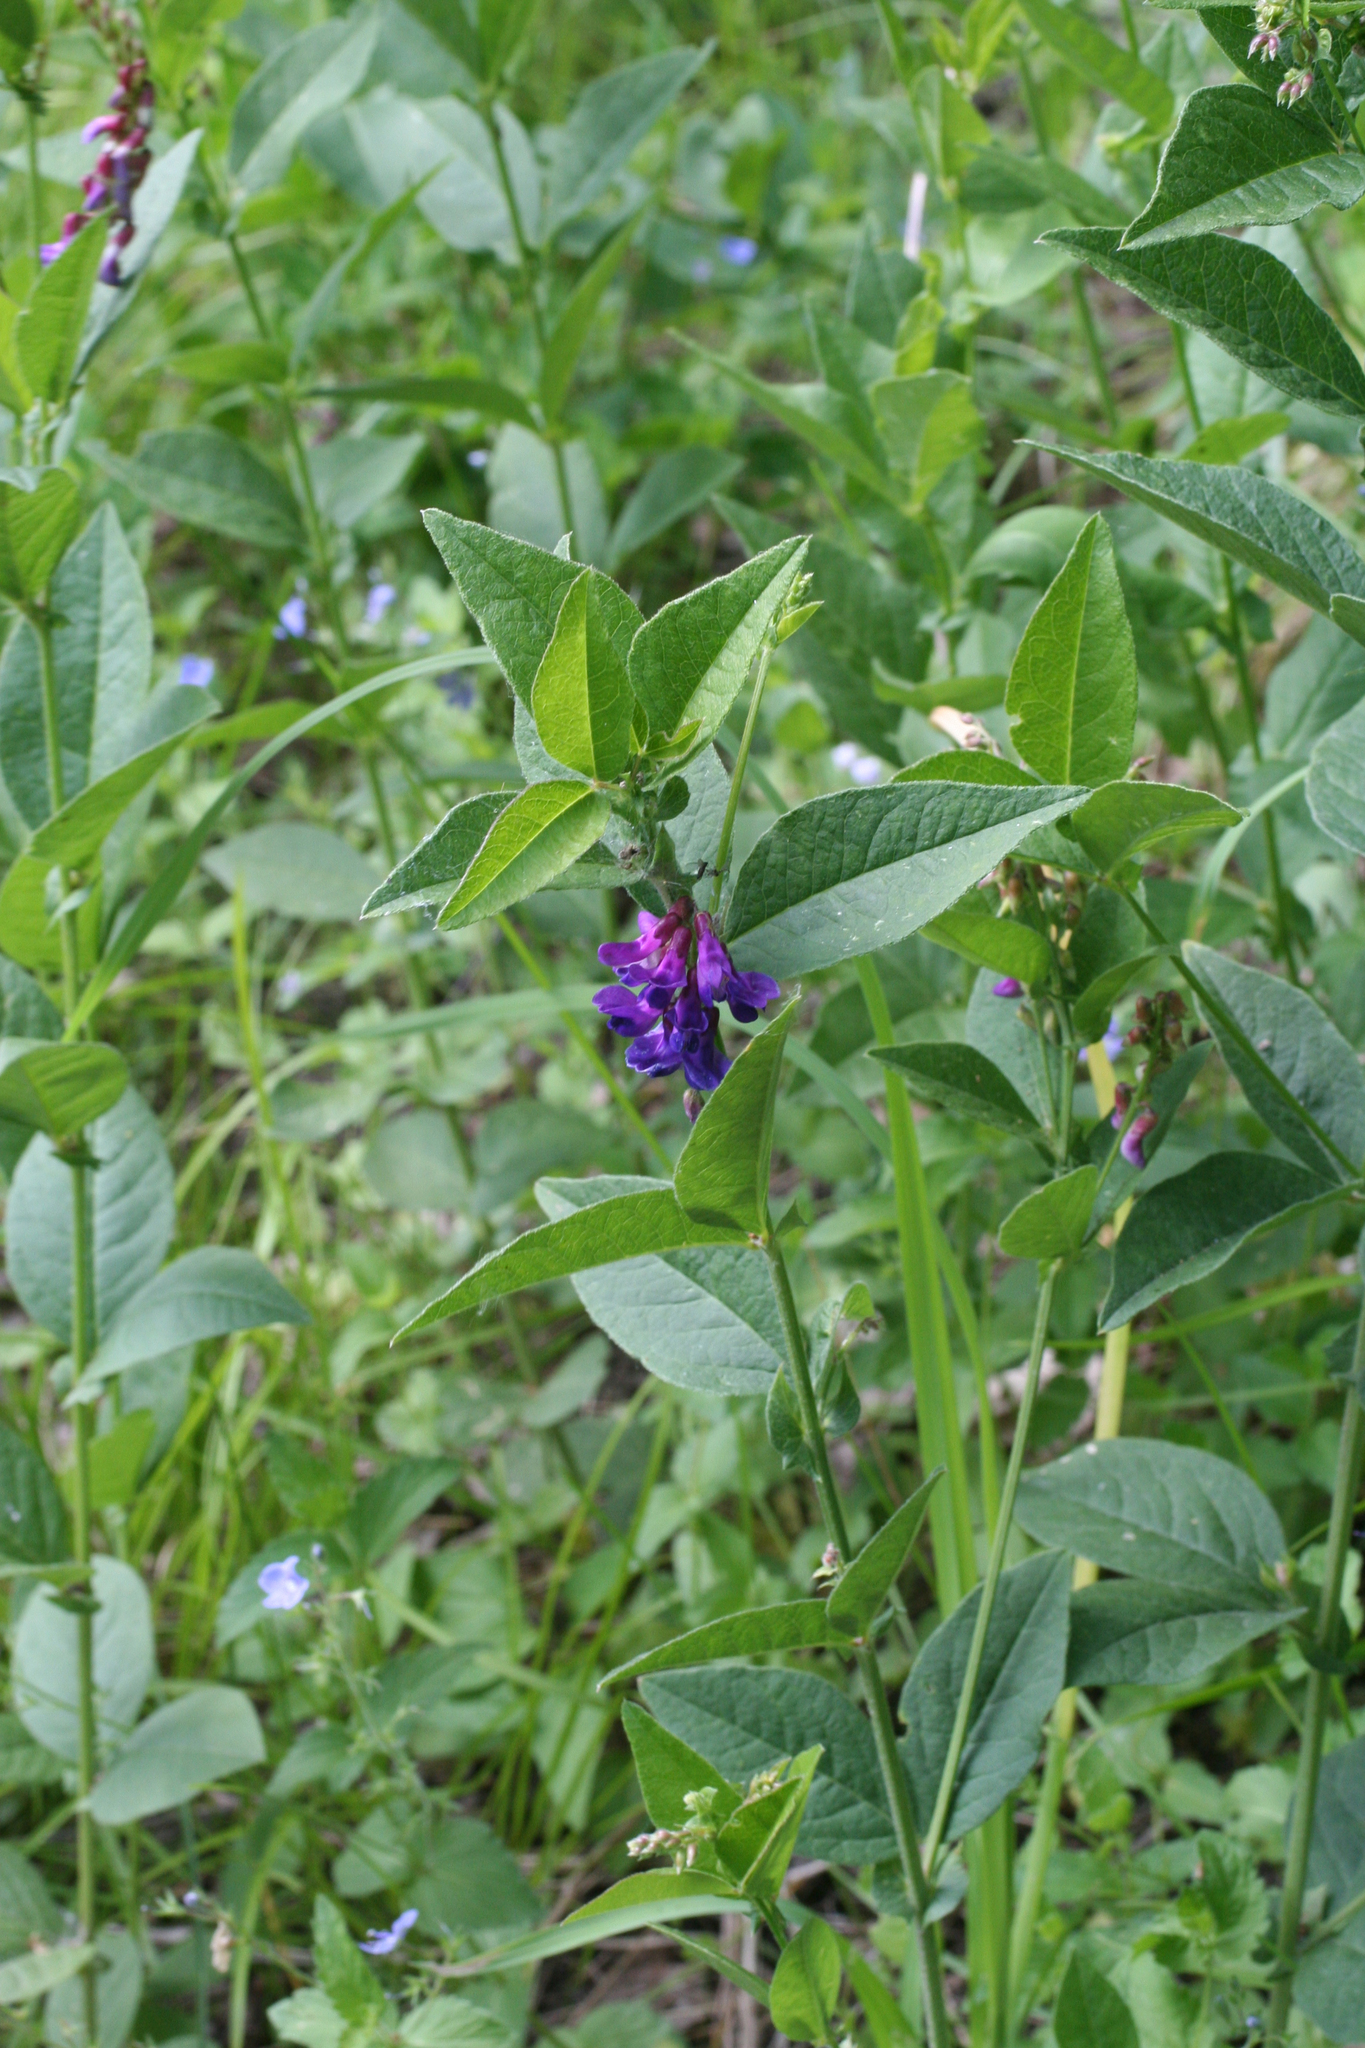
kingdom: Plantae
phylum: Tracheophyta
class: Magnoliopsida
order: Fabales
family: Fabaceae
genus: Vicia
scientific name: Vicia unijuga
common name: Two-leaf vetch
